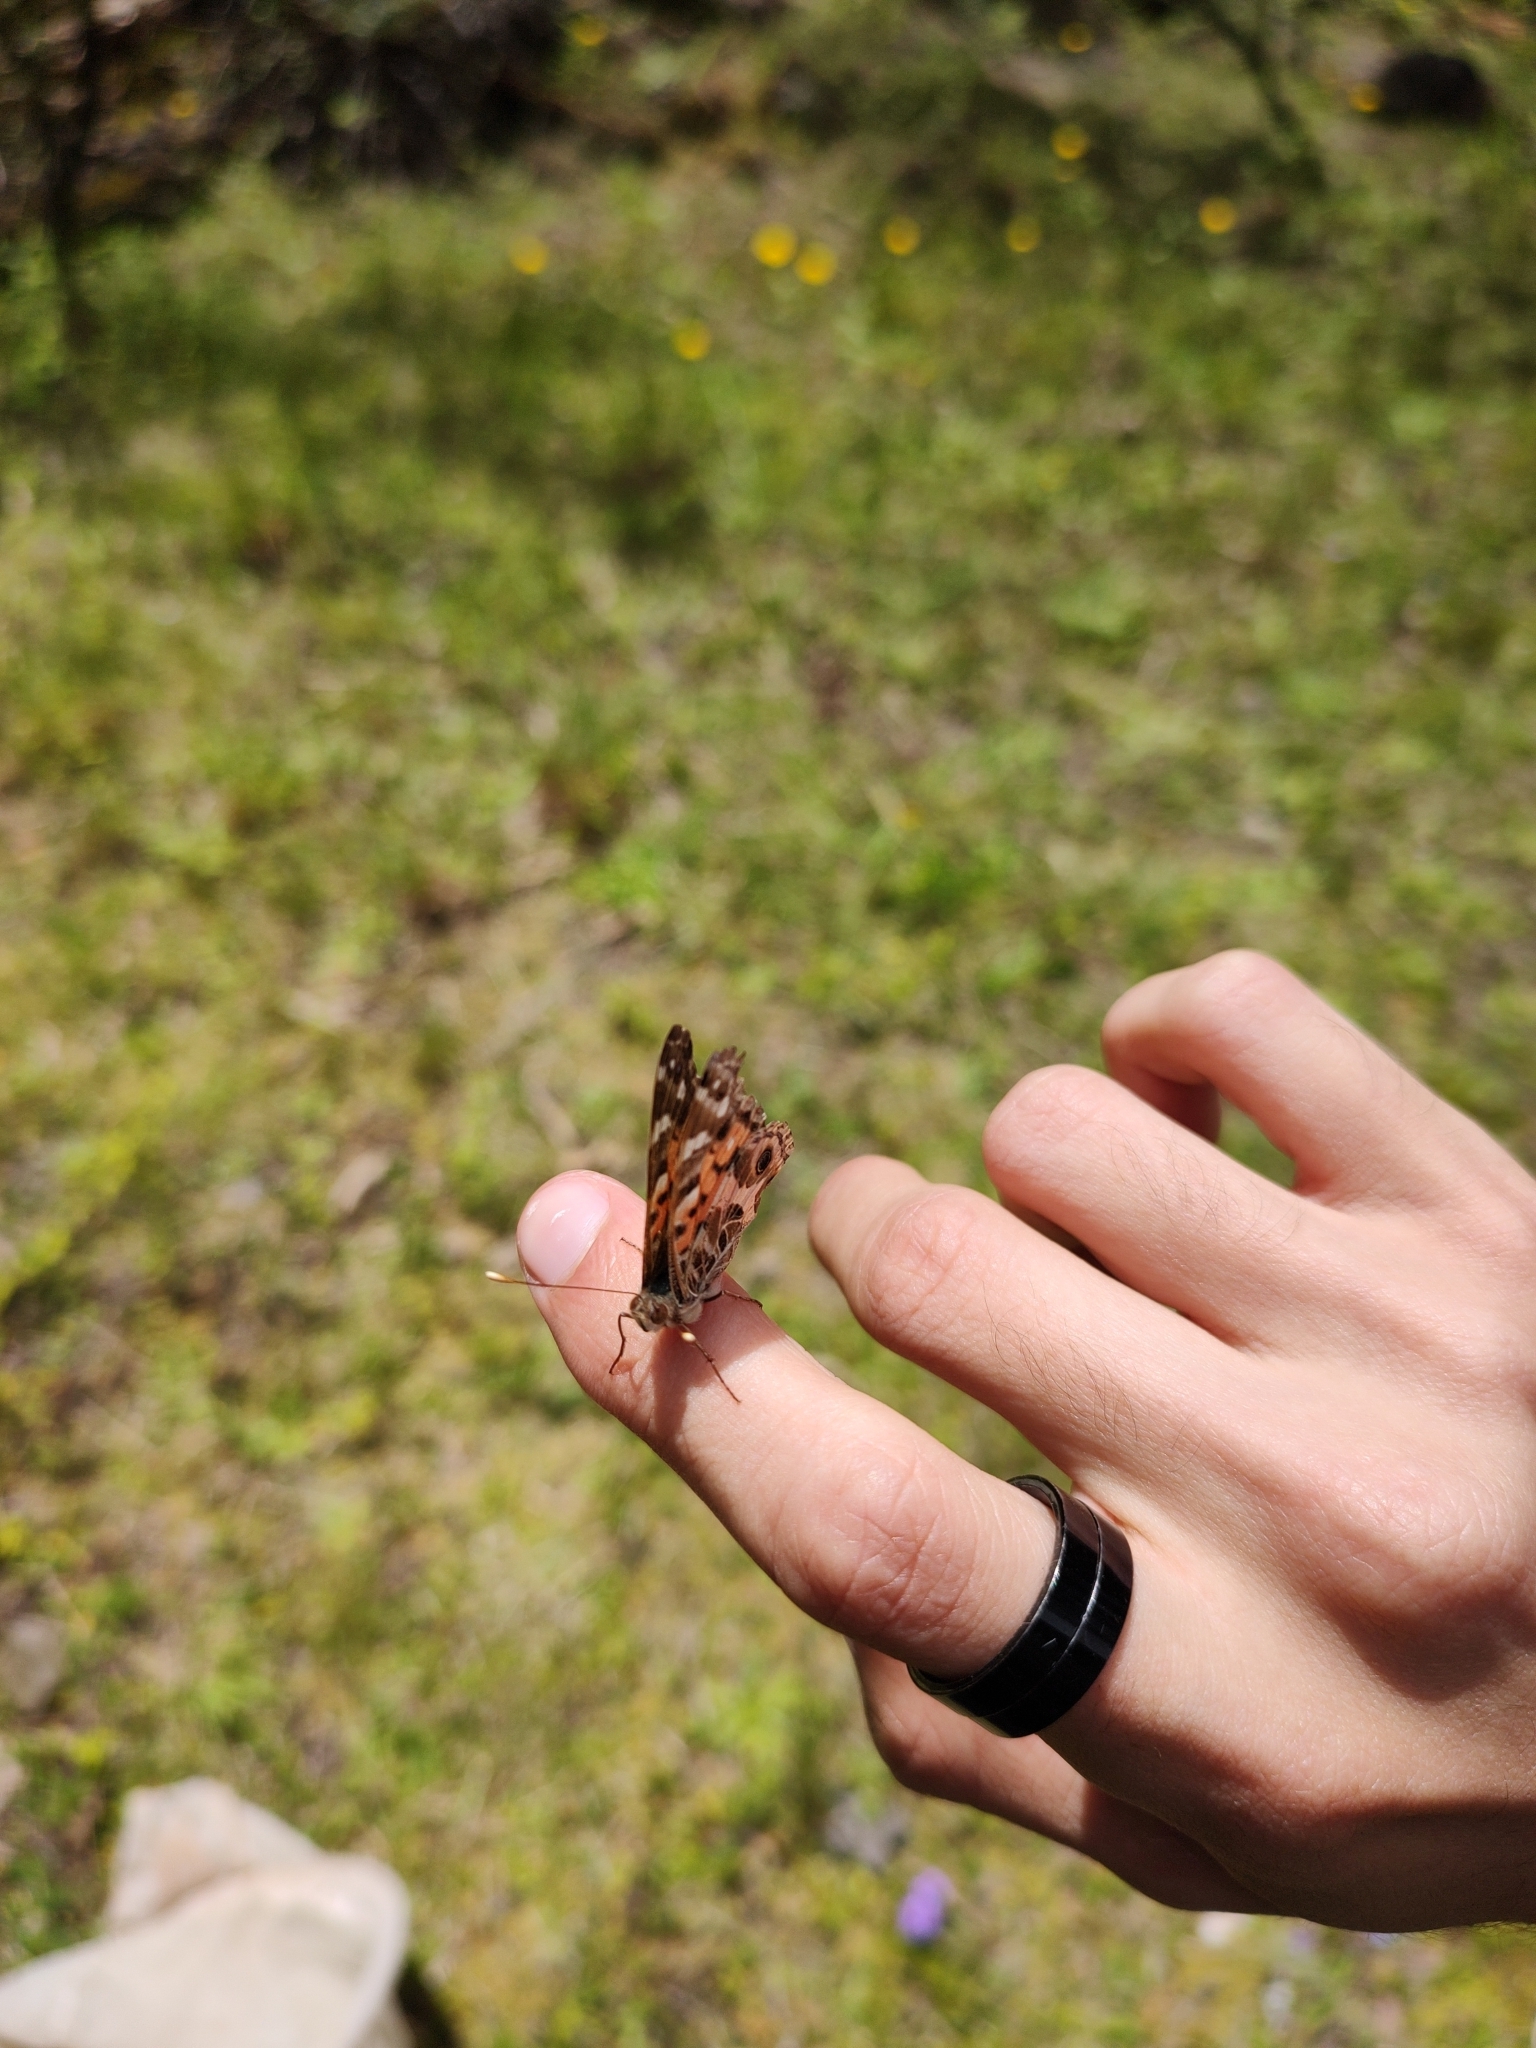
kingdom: Animalia
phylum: Arthropoda
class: Insecta
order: Lepidoptera
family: Nymphalidae
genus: Vanessa
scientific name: Vanessa braziliensis
